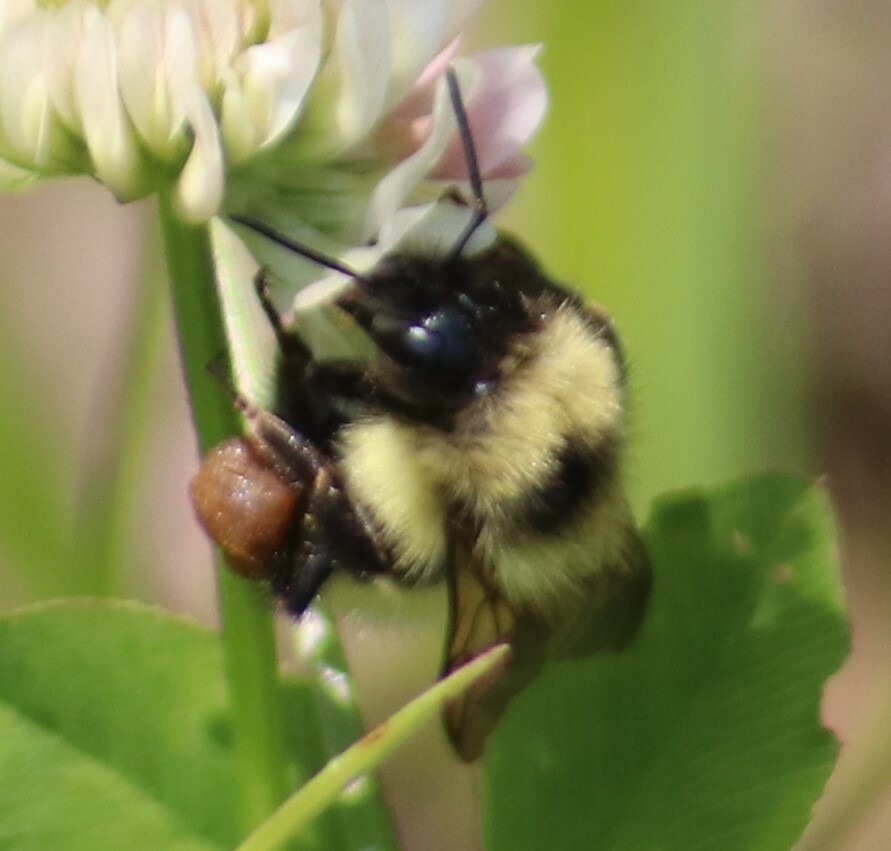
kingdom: Animalia
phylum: Arthropoda
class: Insecta
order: Hymenoptera
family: Apidae
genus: Bombus
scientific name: Bombus vagans
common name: Half-black bumble bee
